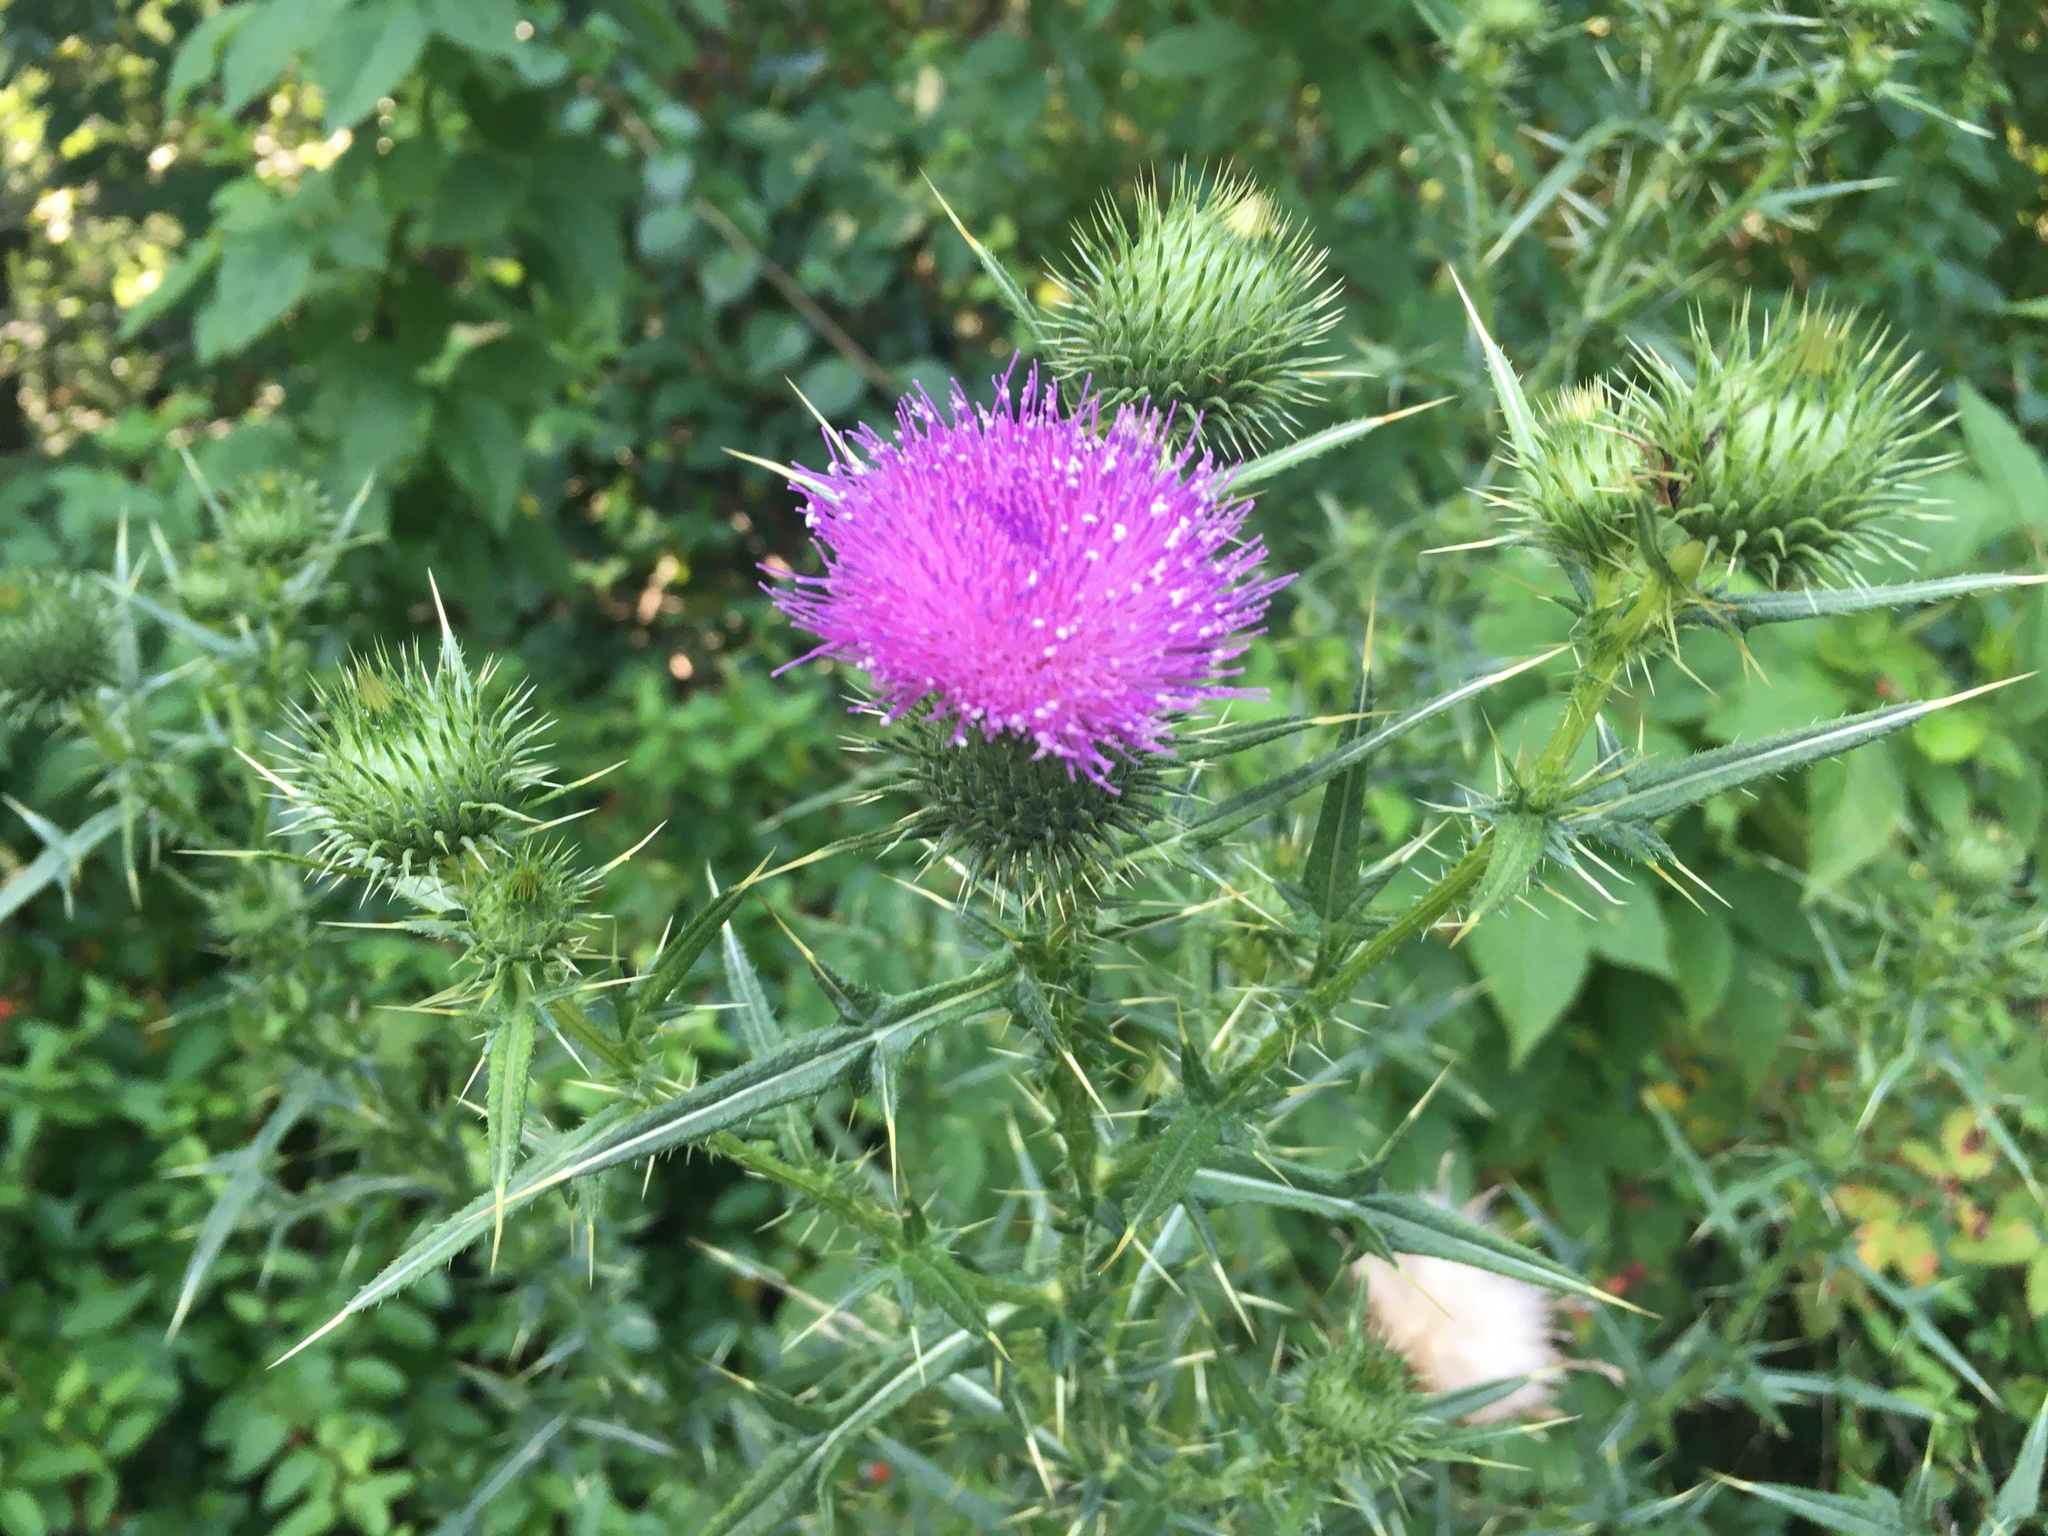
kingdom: Plantae
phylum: Tracheophyta
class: Magnoliopsida
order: Asterales
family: Asteraceae
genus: Cirsium
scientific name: Cirsium vulgare
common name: Bull thistle
